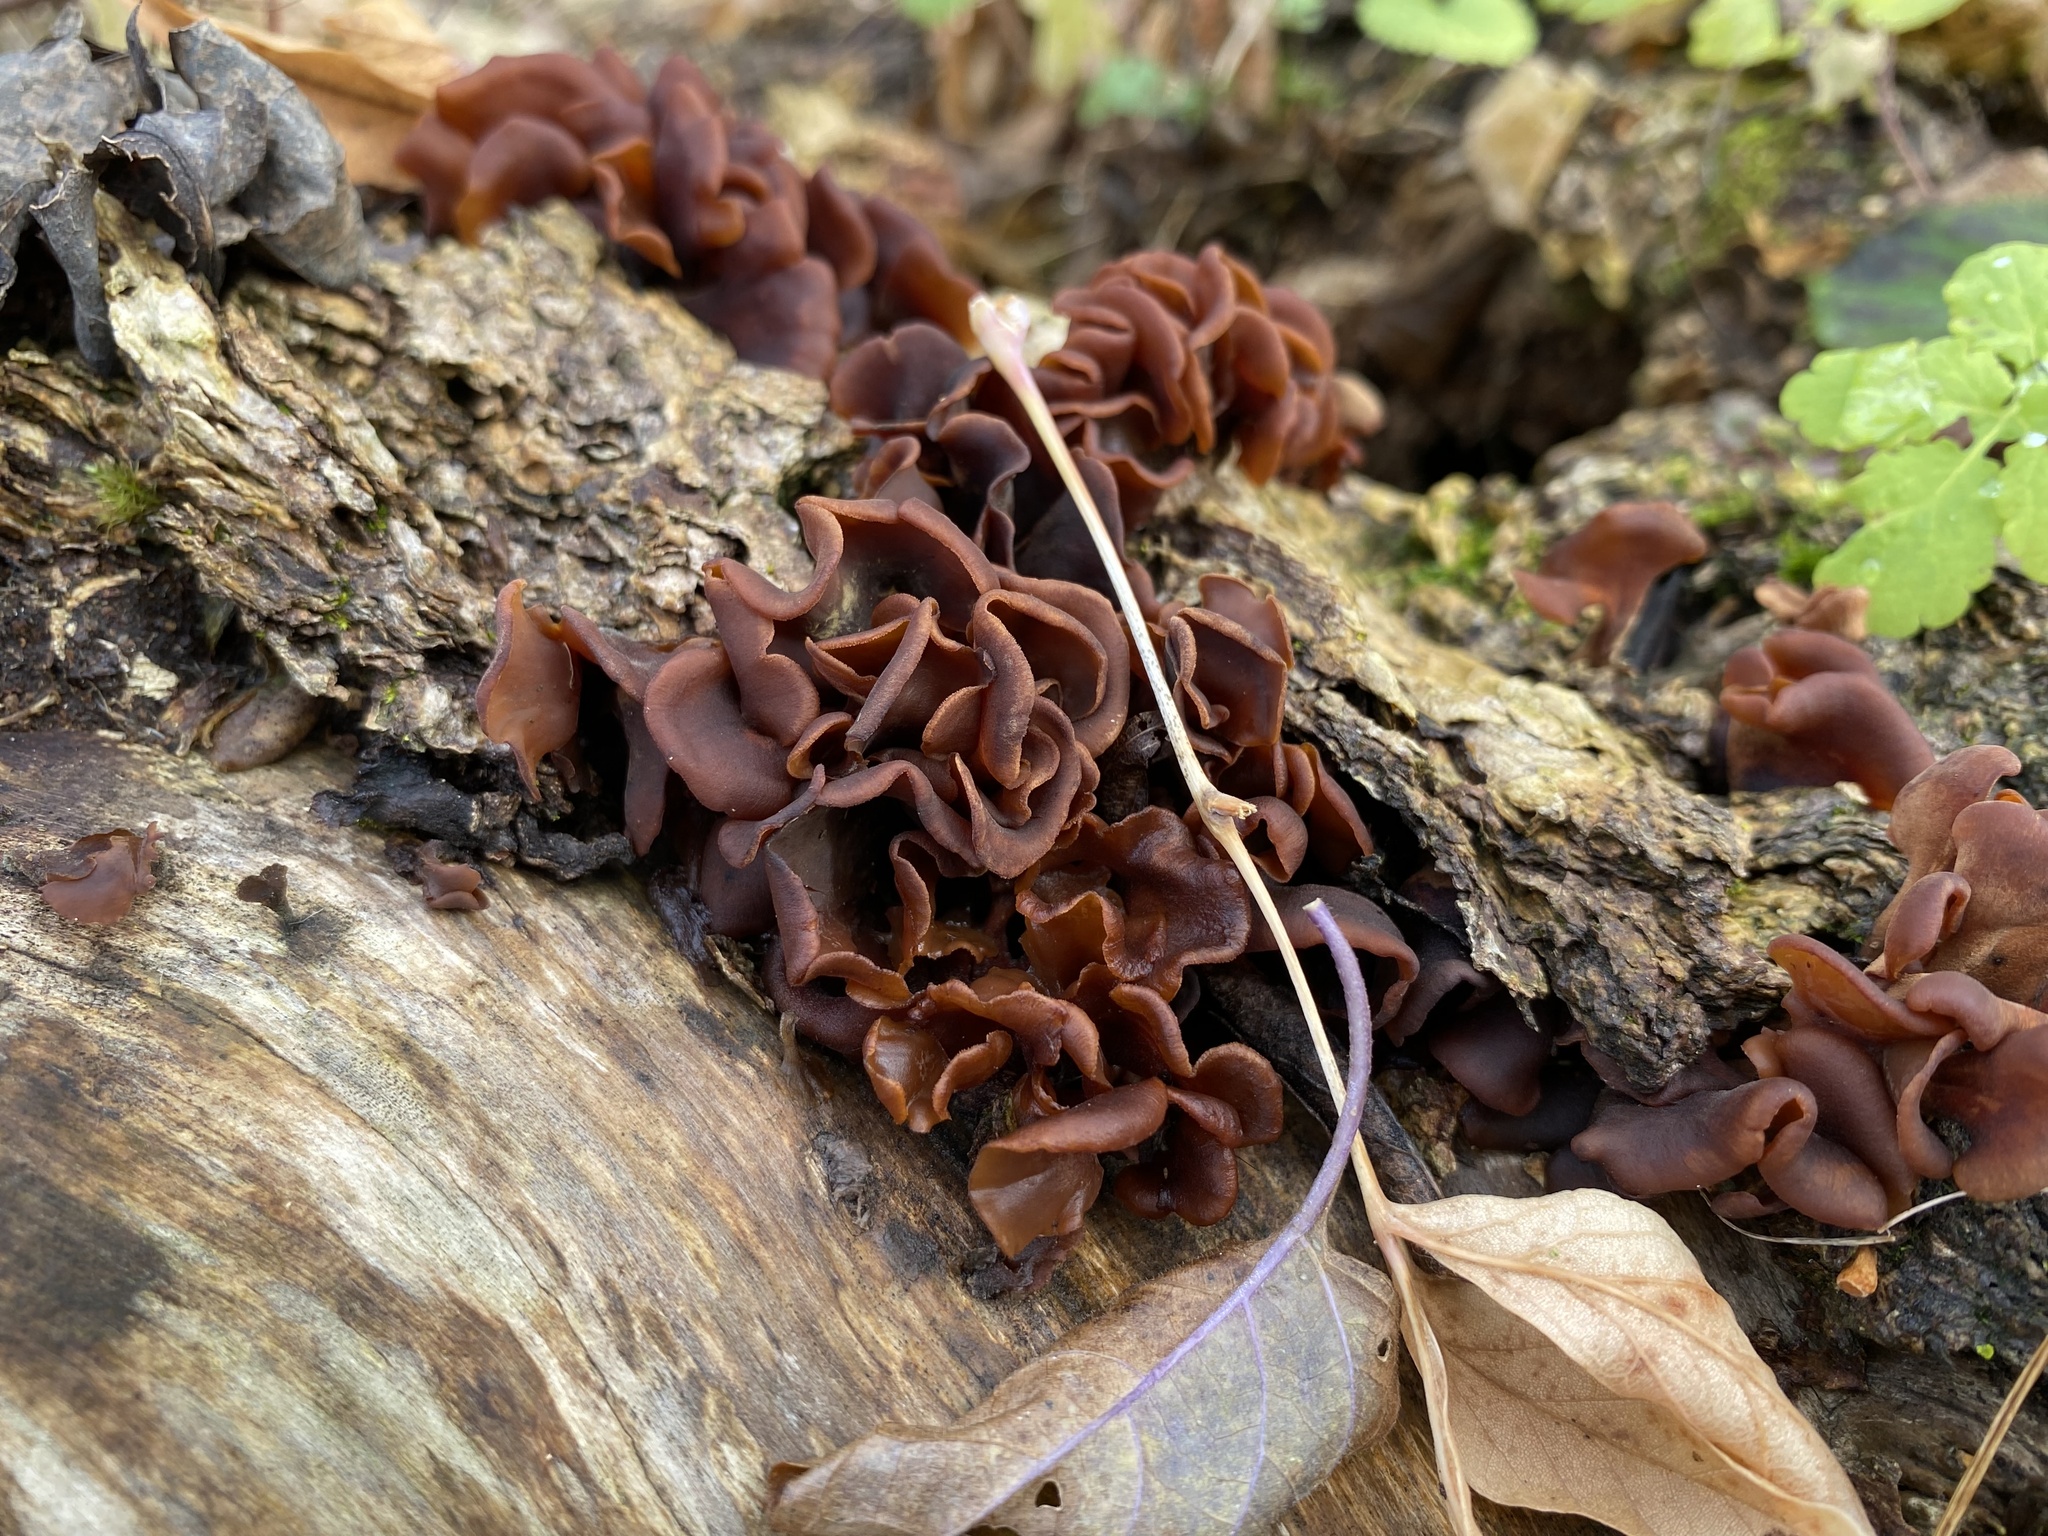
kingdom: Fungi
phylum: Basidiomycota
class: Dacrymycetes
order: Dacrymycetales
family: Dacrymycetaceae
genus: Dacryopinax
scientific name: Dacryopinax elegans
